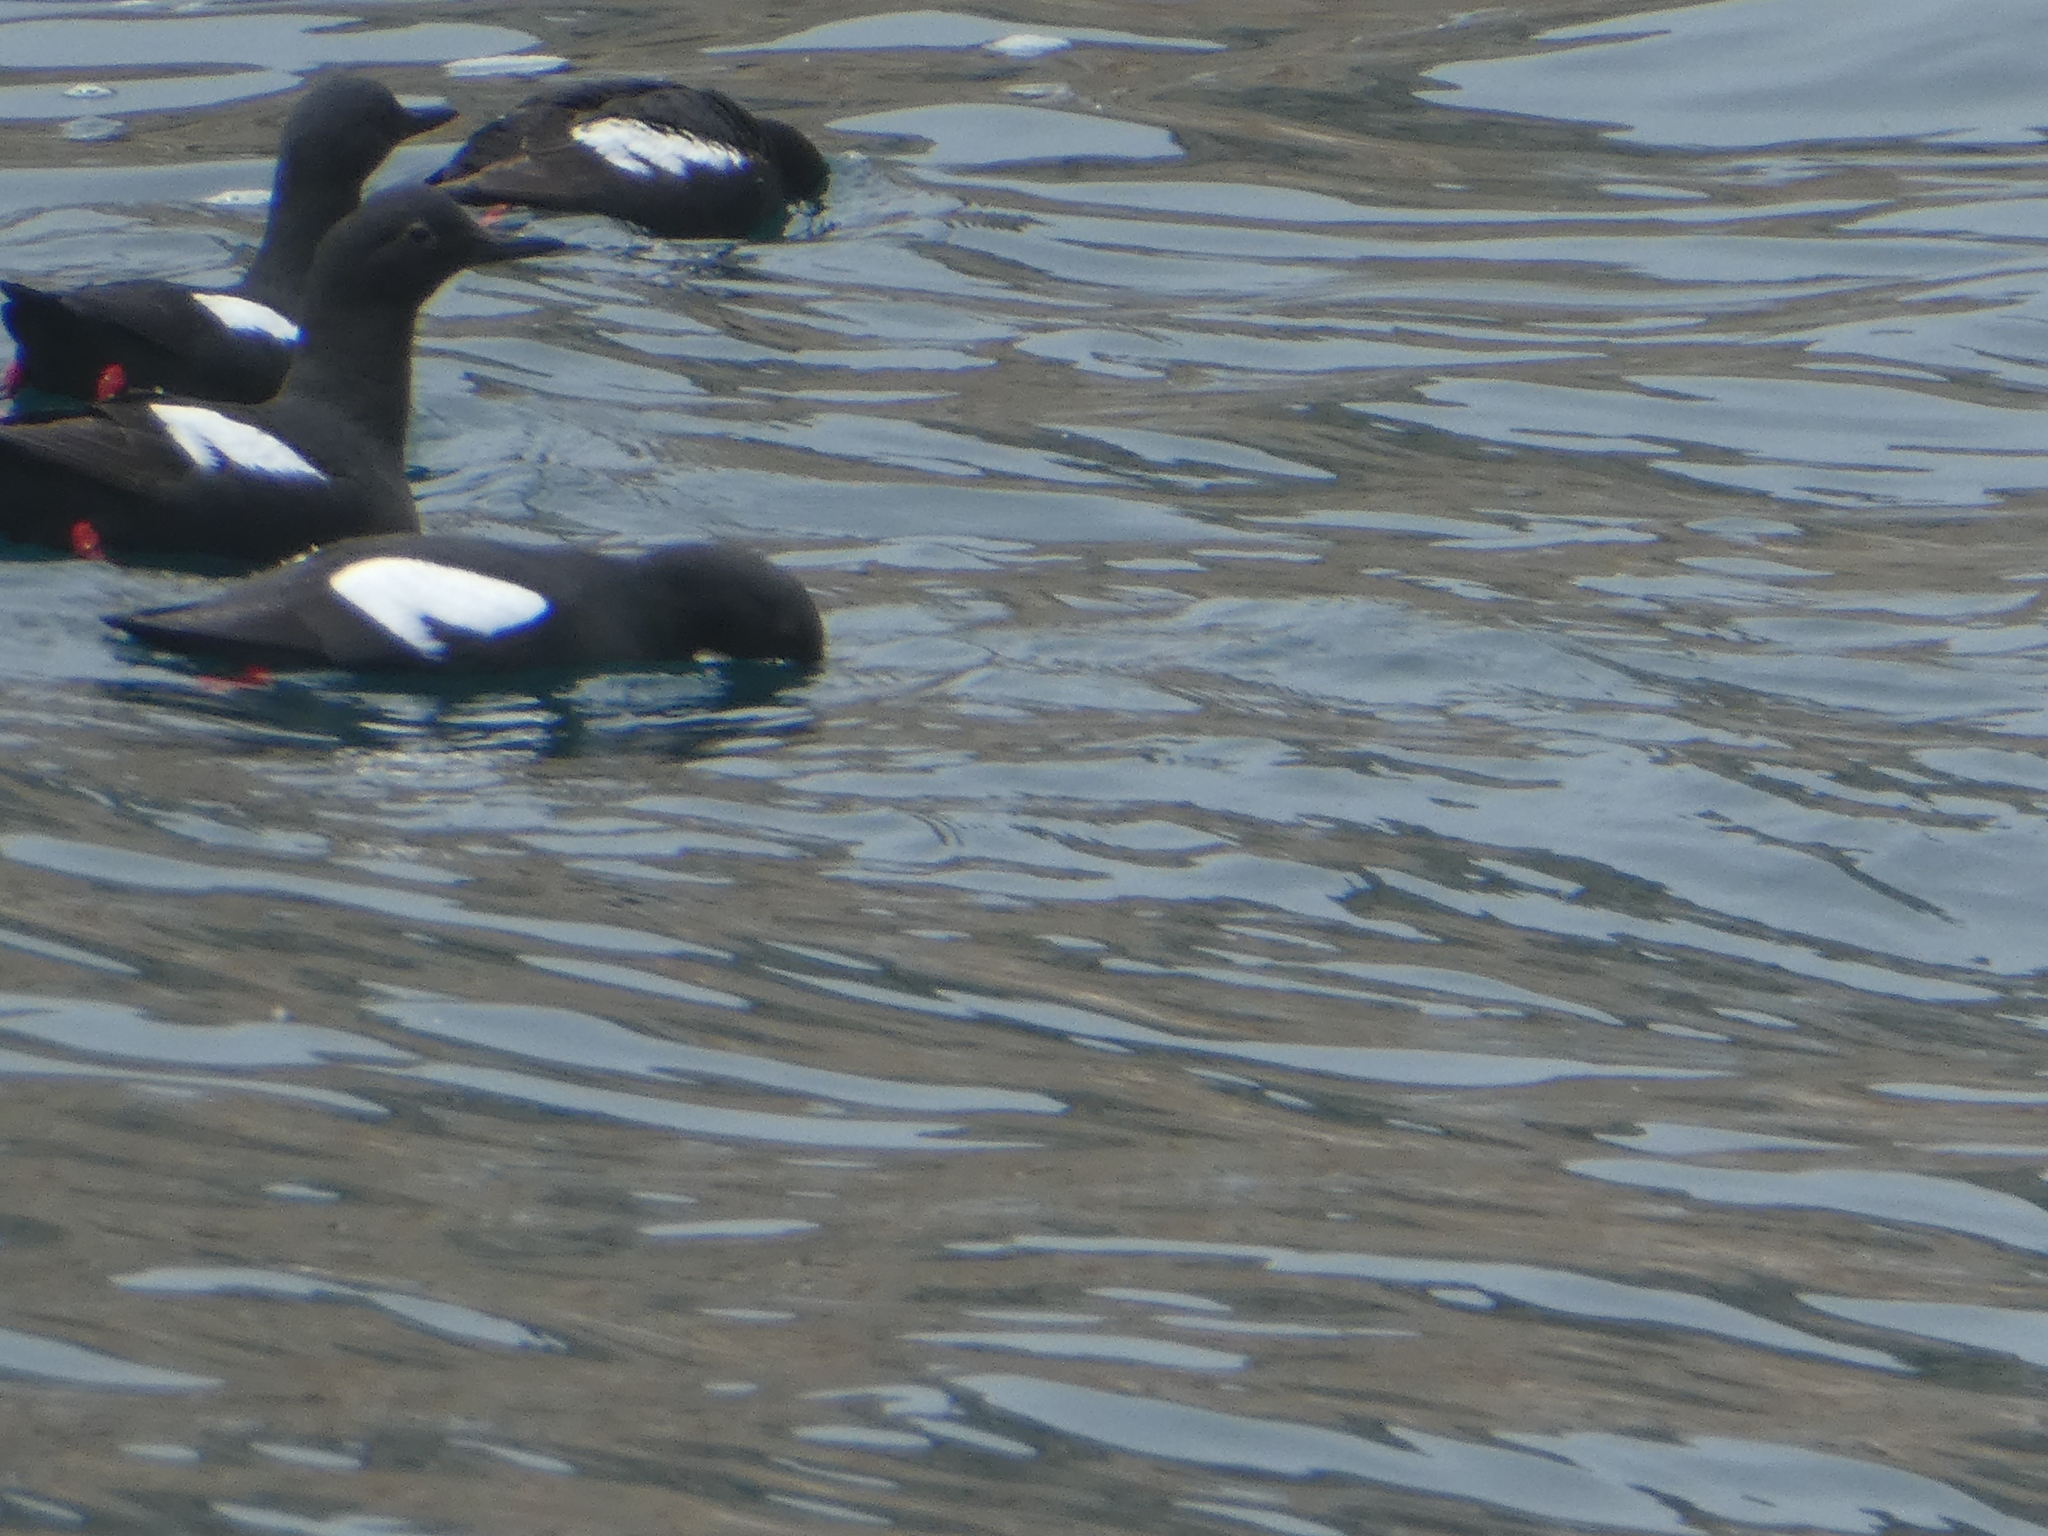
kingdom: Animalia
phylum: Chordata
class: Aves
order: Charadriiformes
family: Alcidae
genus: Cepphus
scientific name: Cepphus columba
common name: Pigeon guillemot
